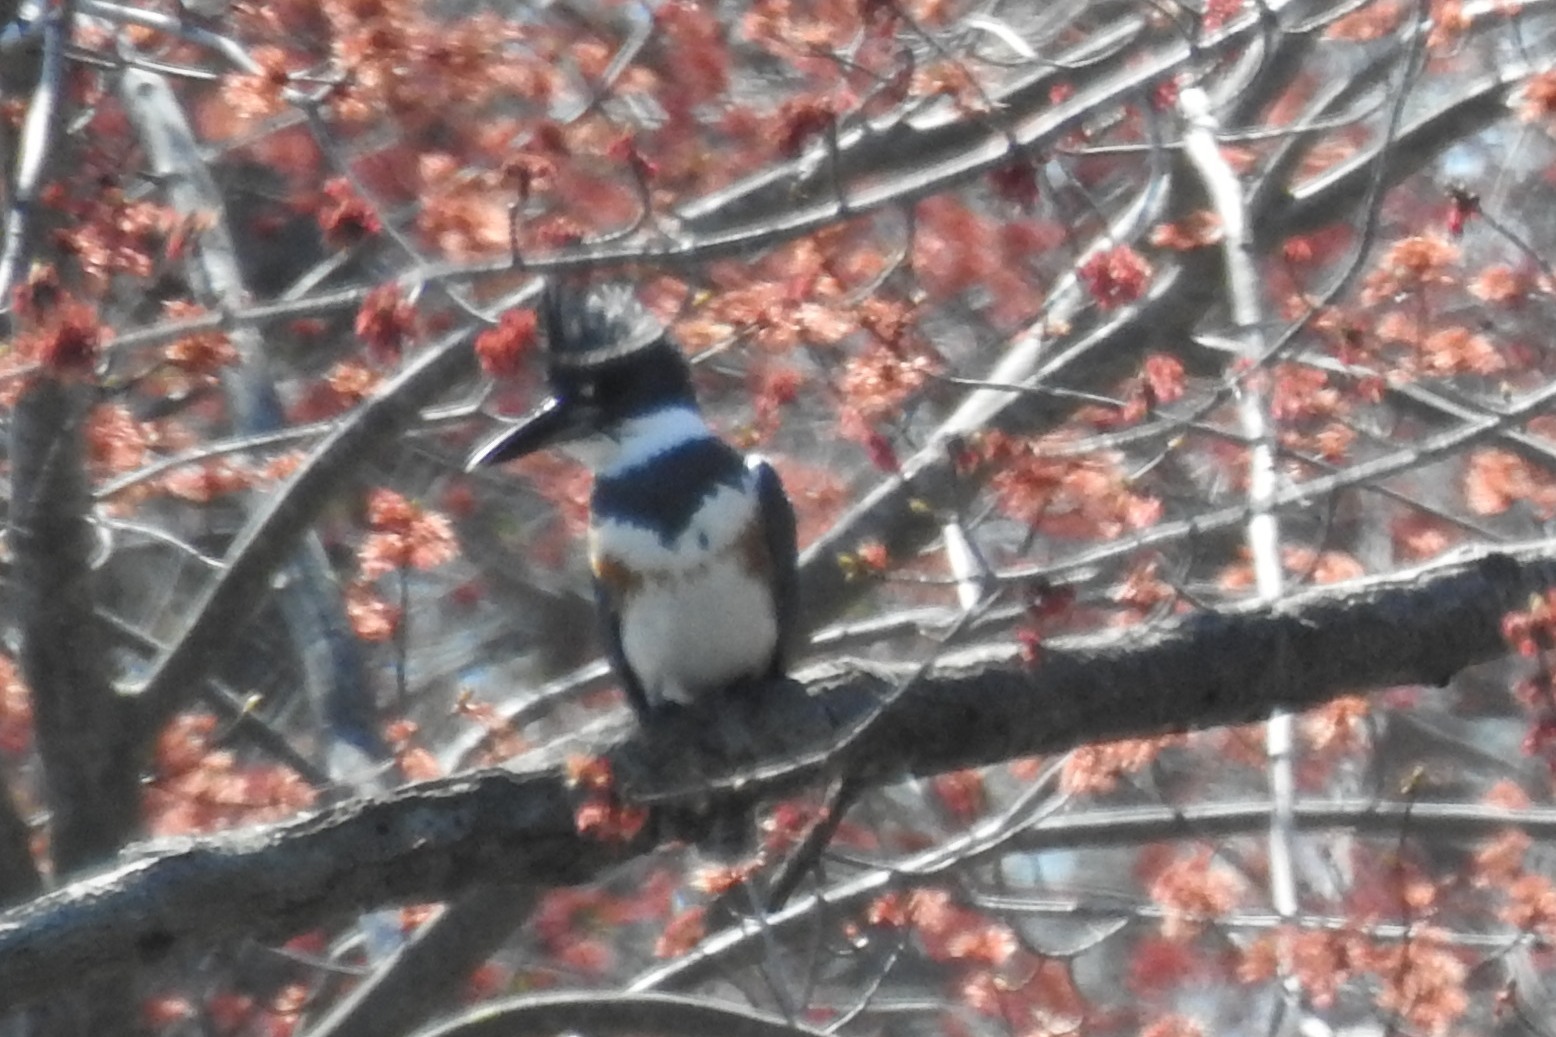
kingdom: Animalia
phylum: Chordata
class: Aves
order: Coraciiformes
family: Alcedinidae
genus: Megaceryle
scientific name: Megaceryle alcyon
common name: Belted kingfisher
